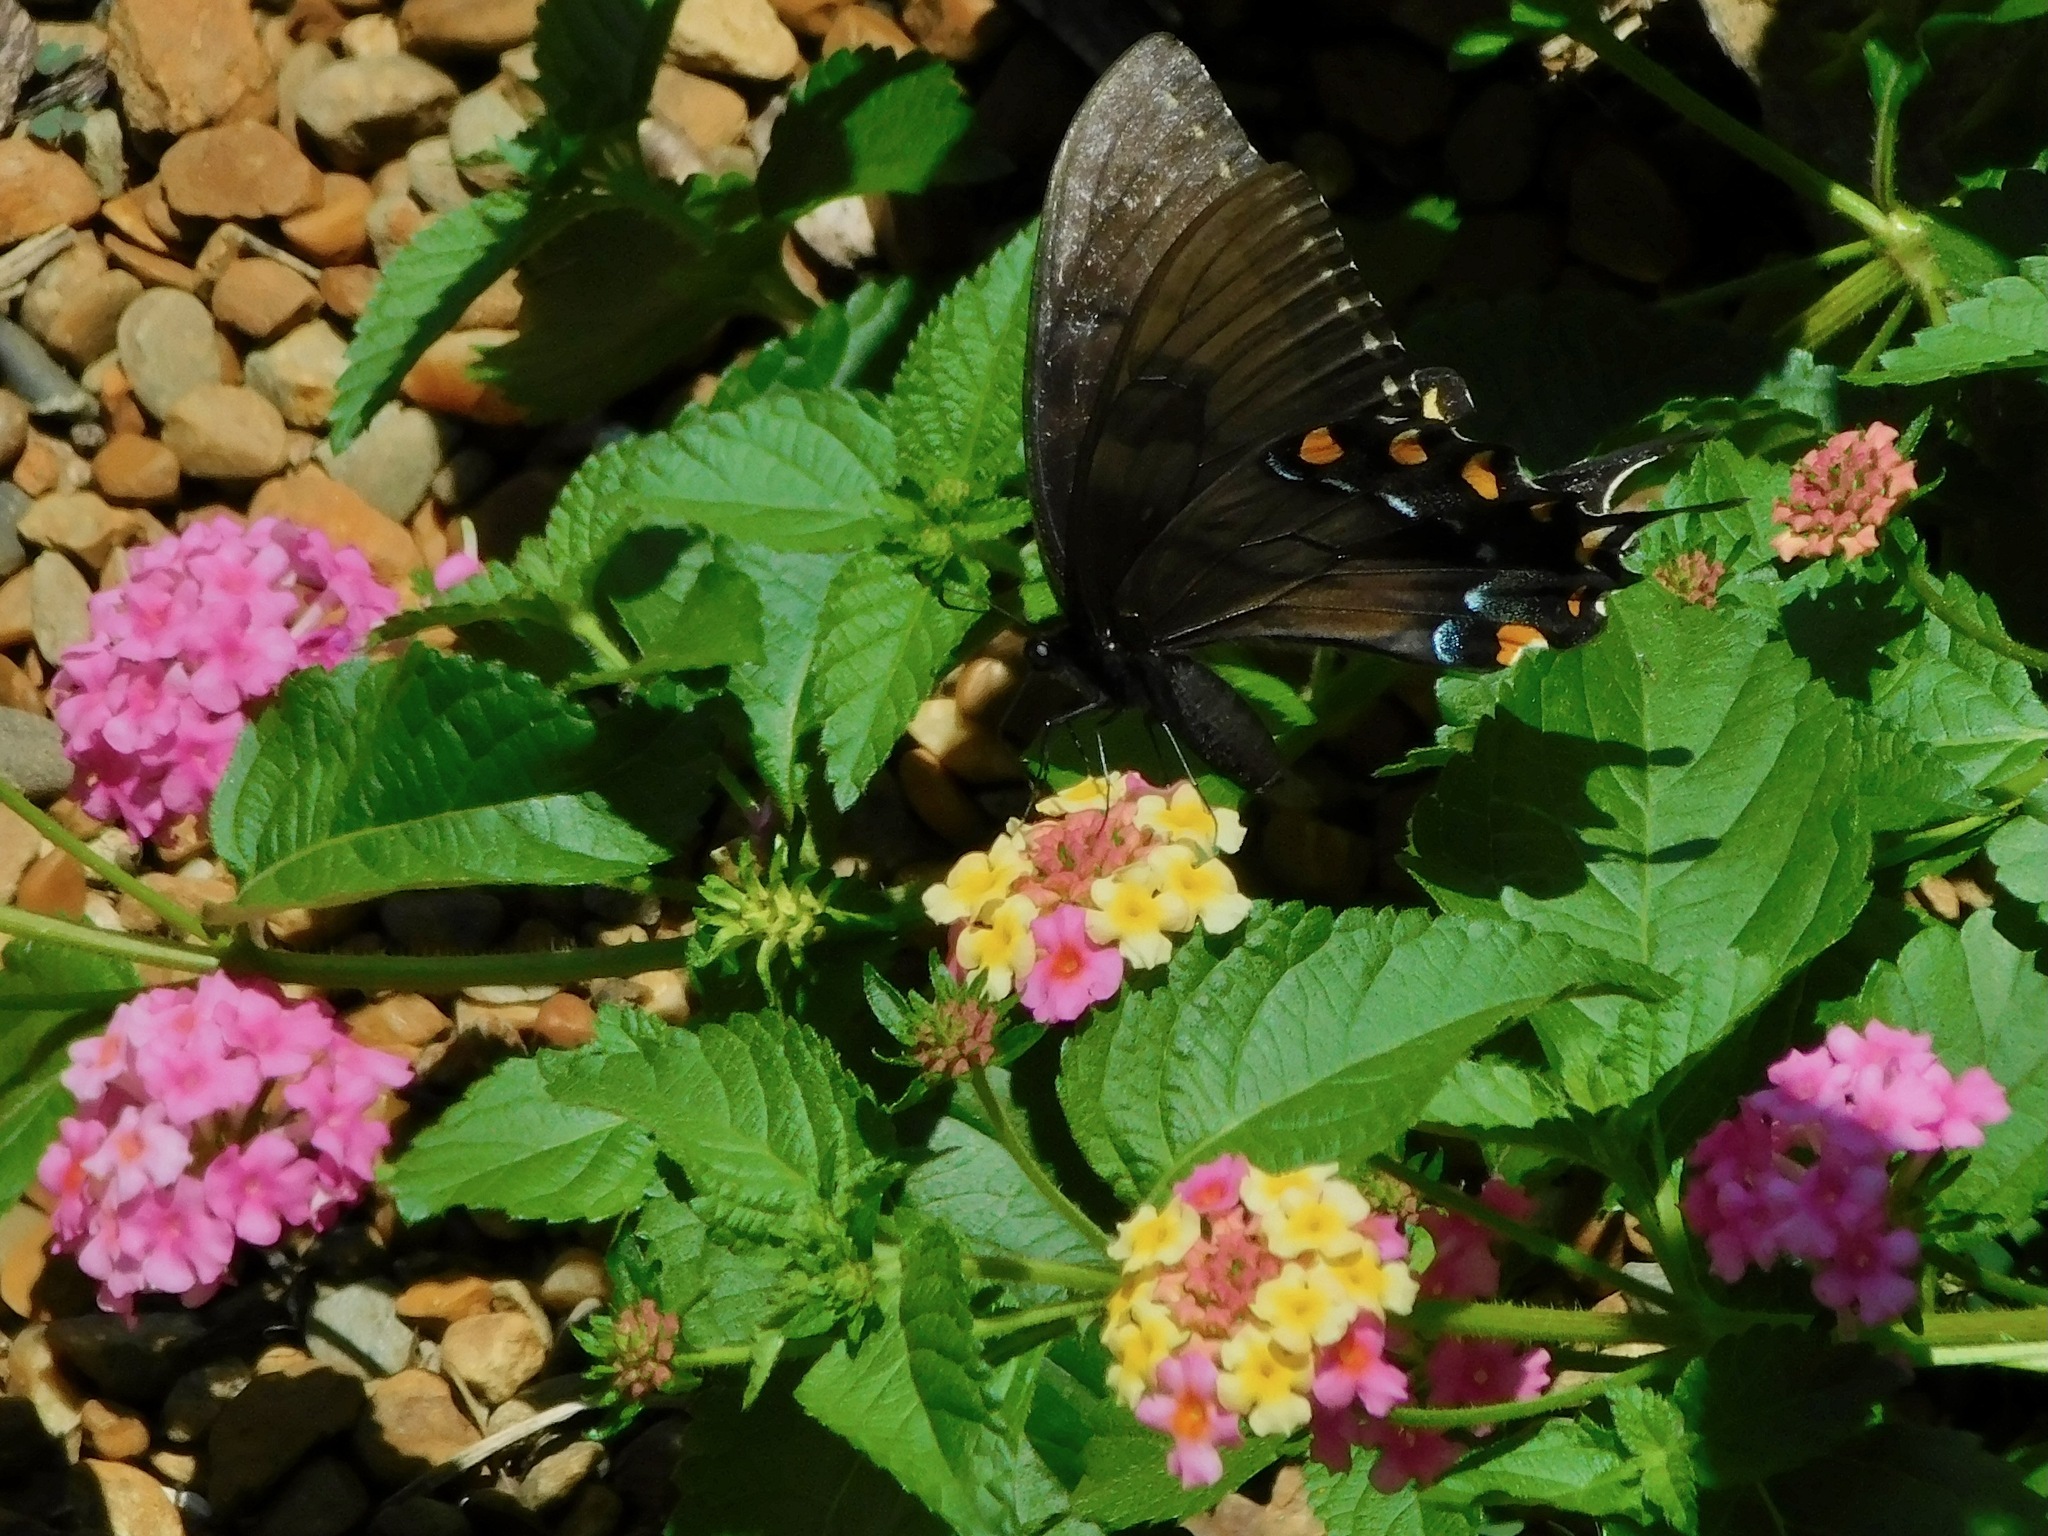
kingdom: Animalia
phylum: Arthropoda
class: Insecta
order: Lepidoptera
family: Papilionidae
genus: Papilio
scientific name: Papilio glaucus
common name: Tiger swallowtail
